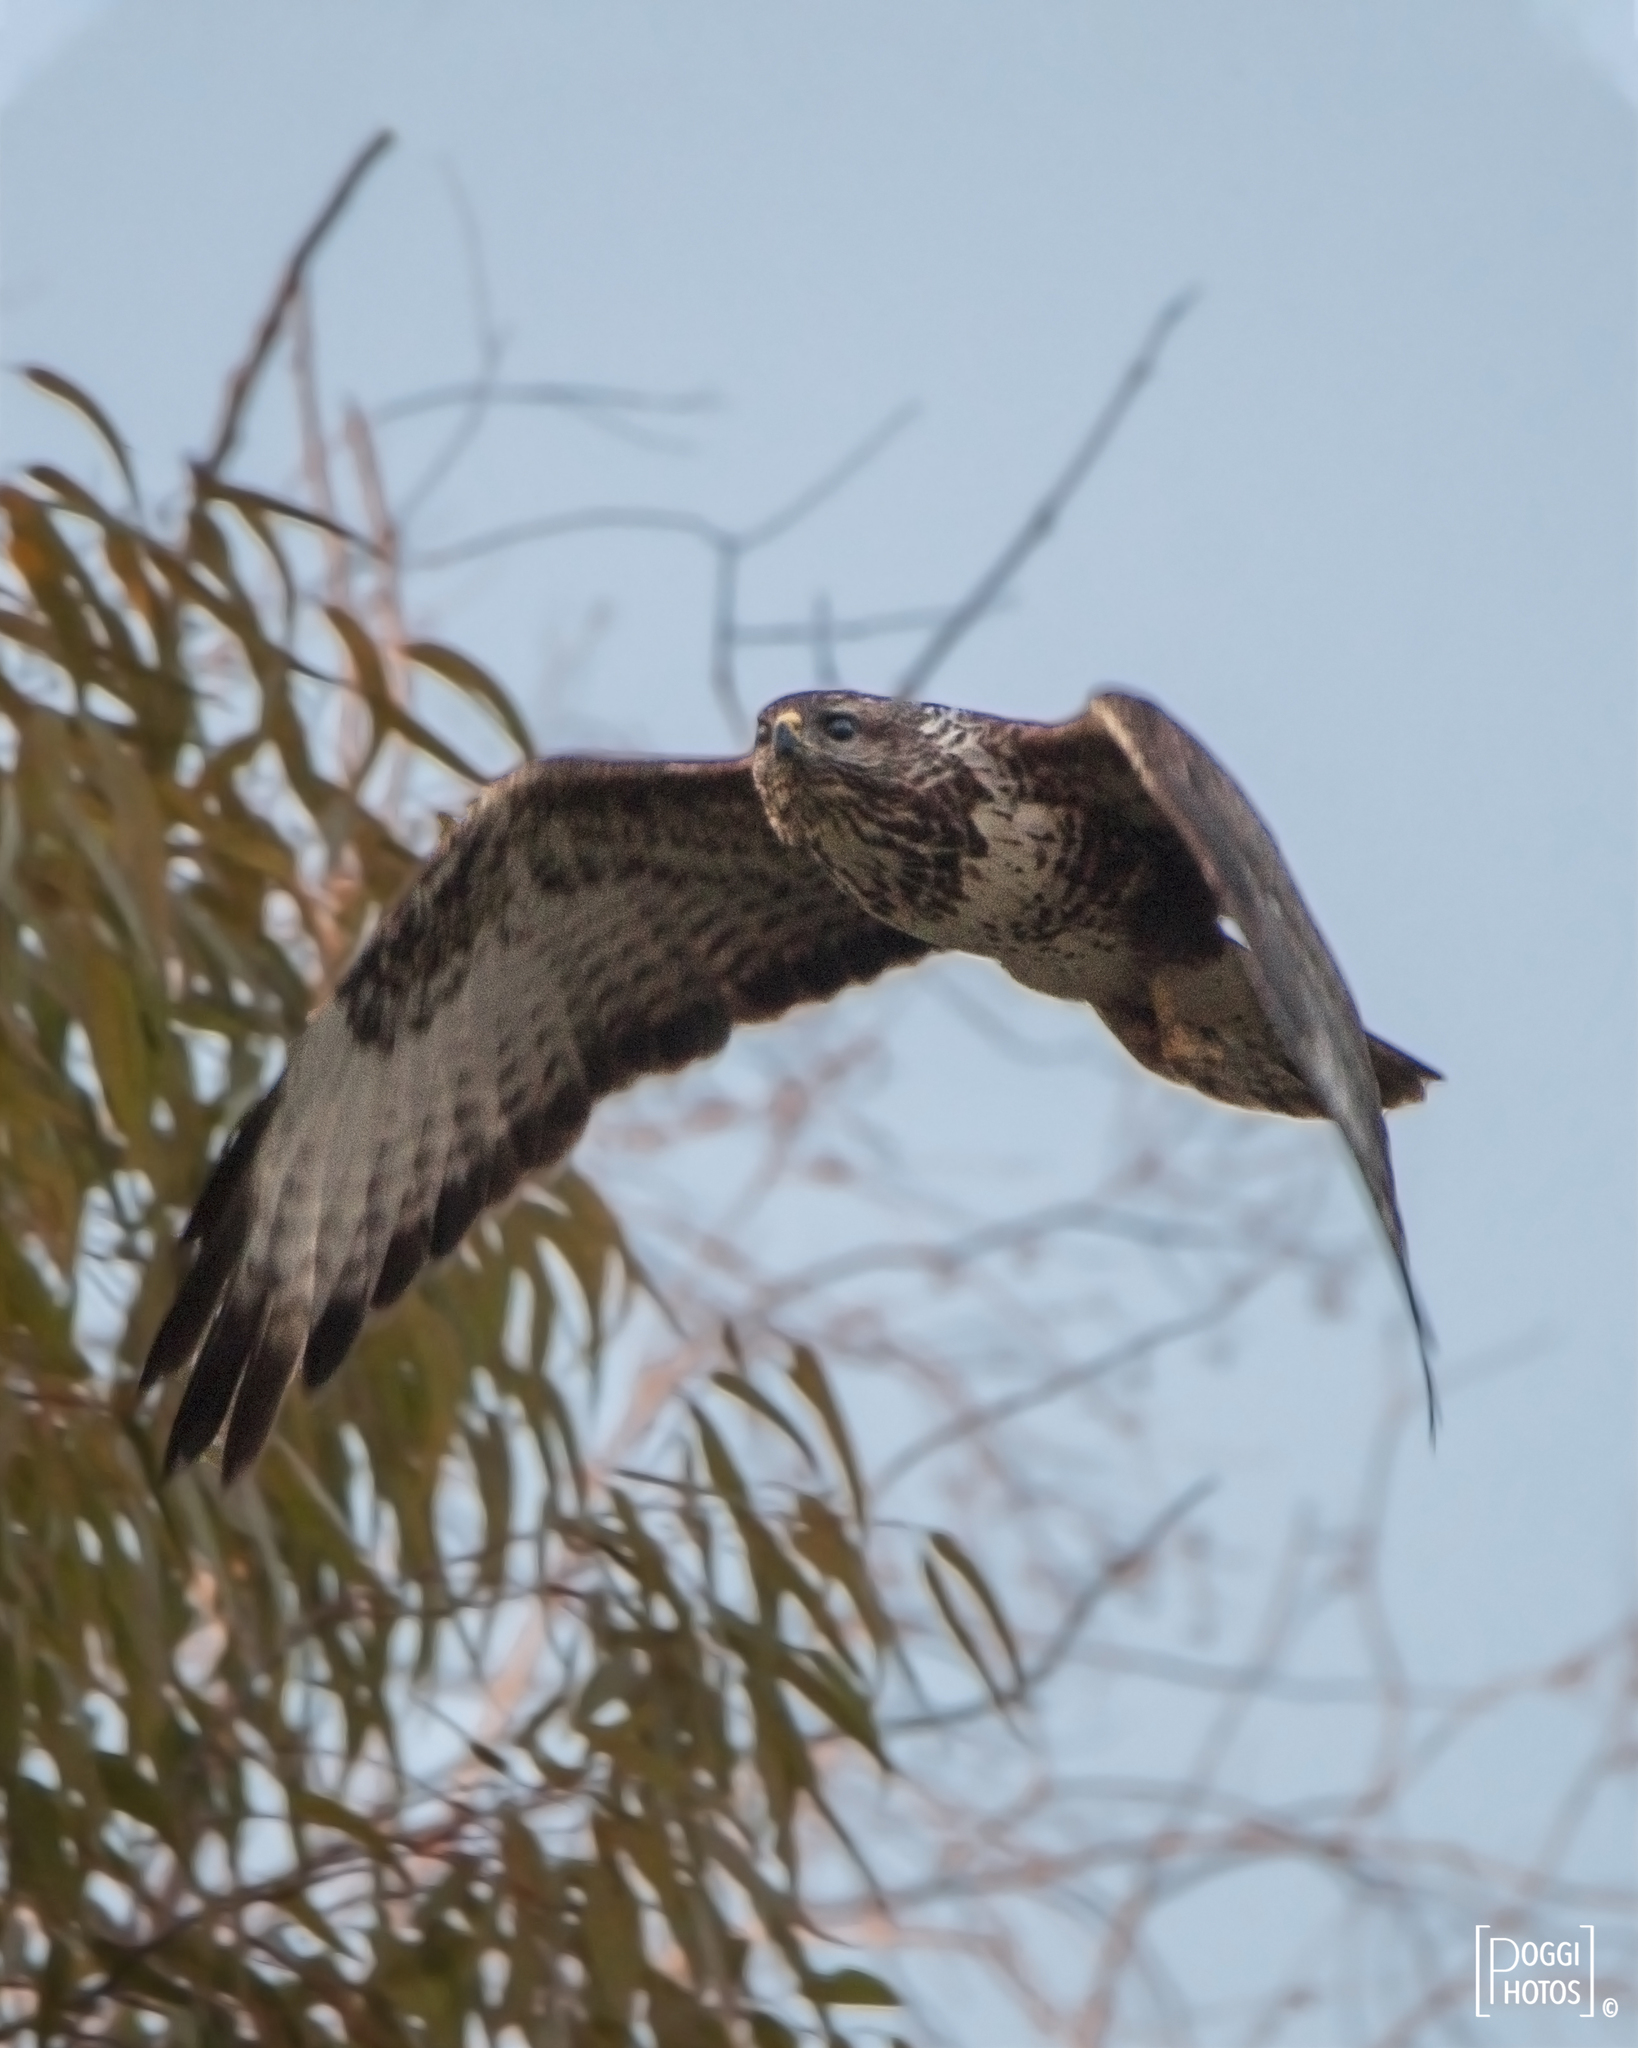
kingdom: Animalia
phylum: Chordata
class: Aves
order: Accipitriformes
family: Accipitridae
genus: Buteo
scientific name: Buteo buteo
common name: Common buzzard
